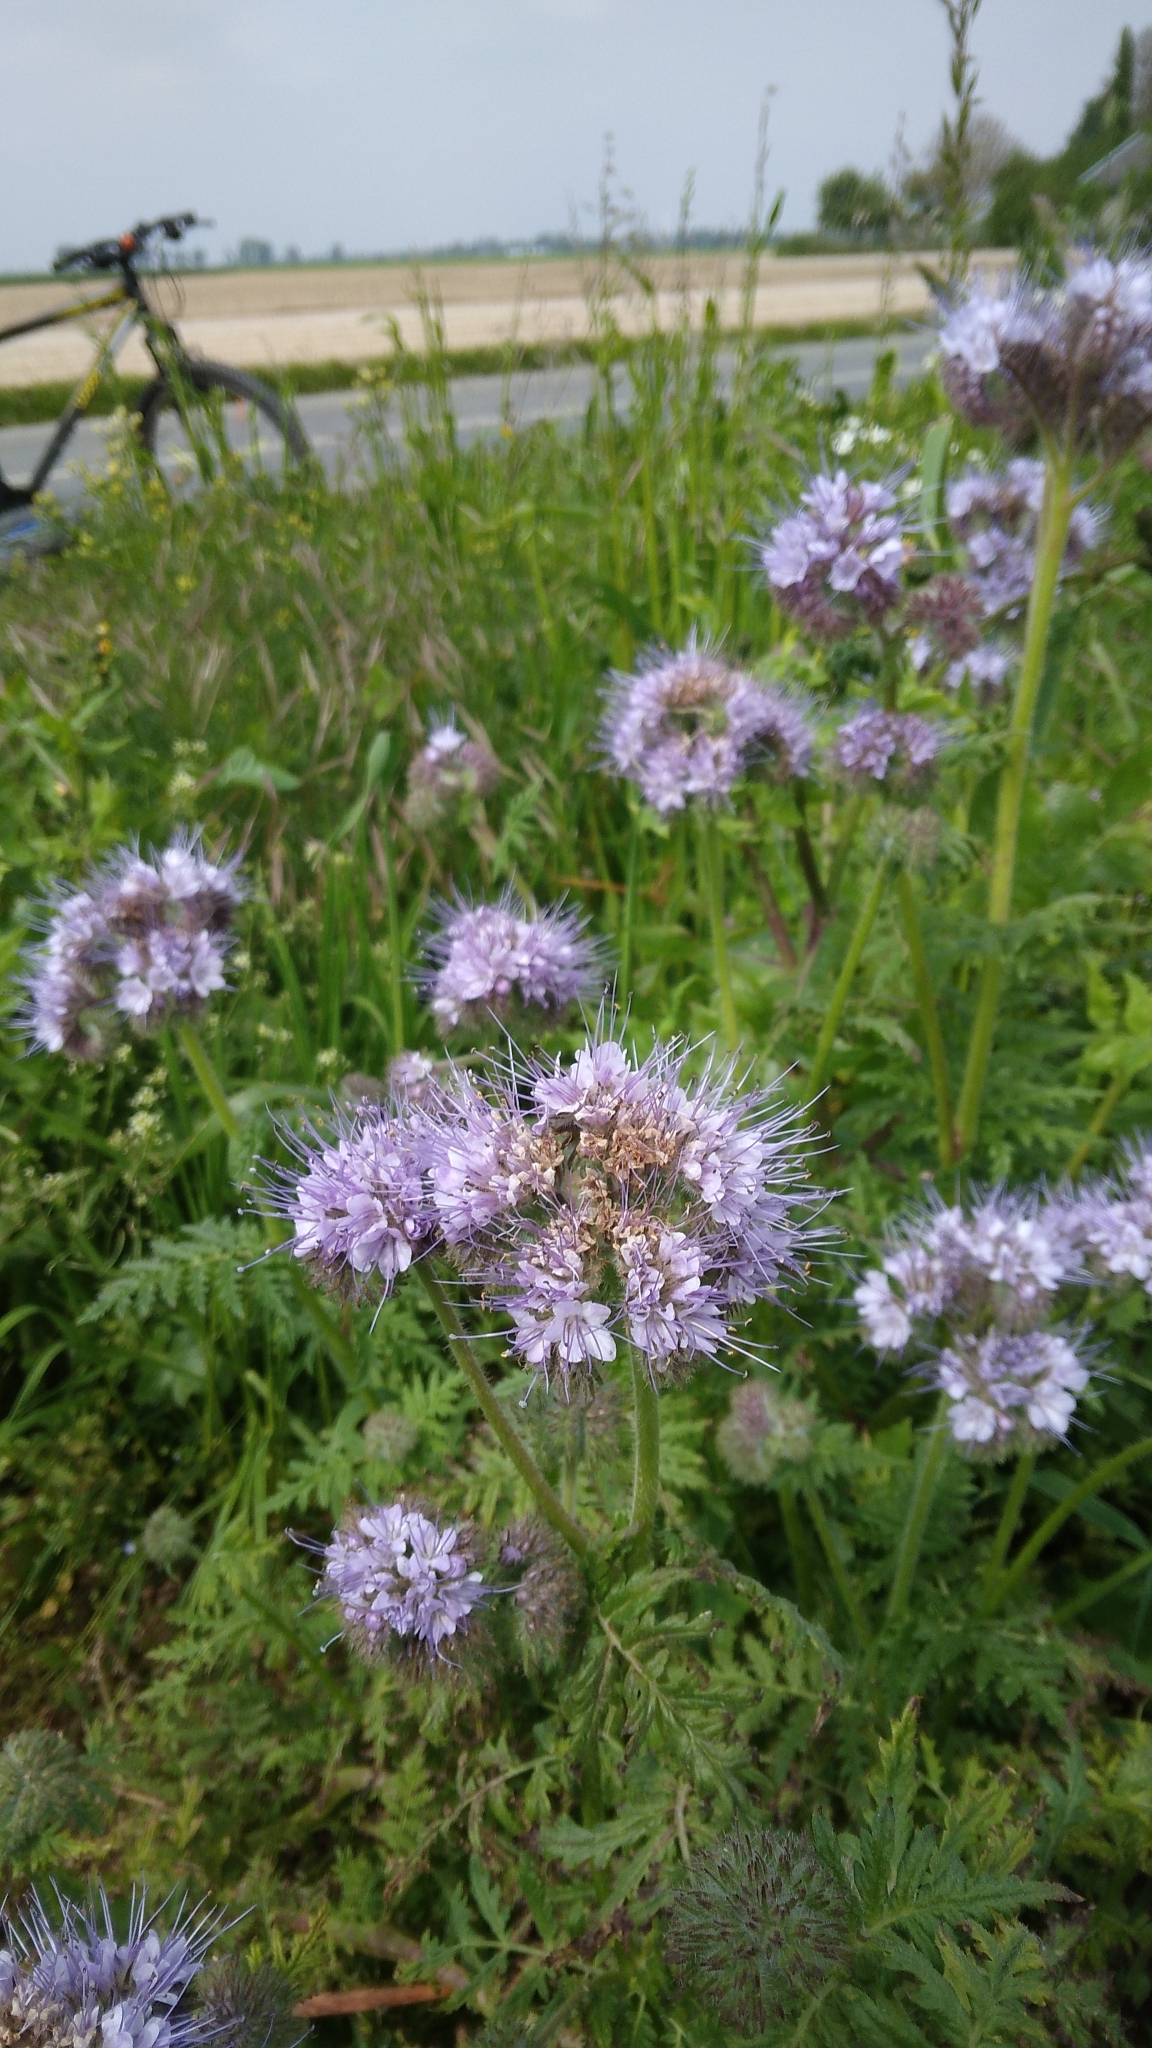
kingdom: Plantae
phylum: Tracheophyta
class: Magnoliopsida
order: Boraginales
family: Hydrophyllaceae
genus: Phacelia
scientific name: Phacelia tanacetifolia
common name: Phacelia
